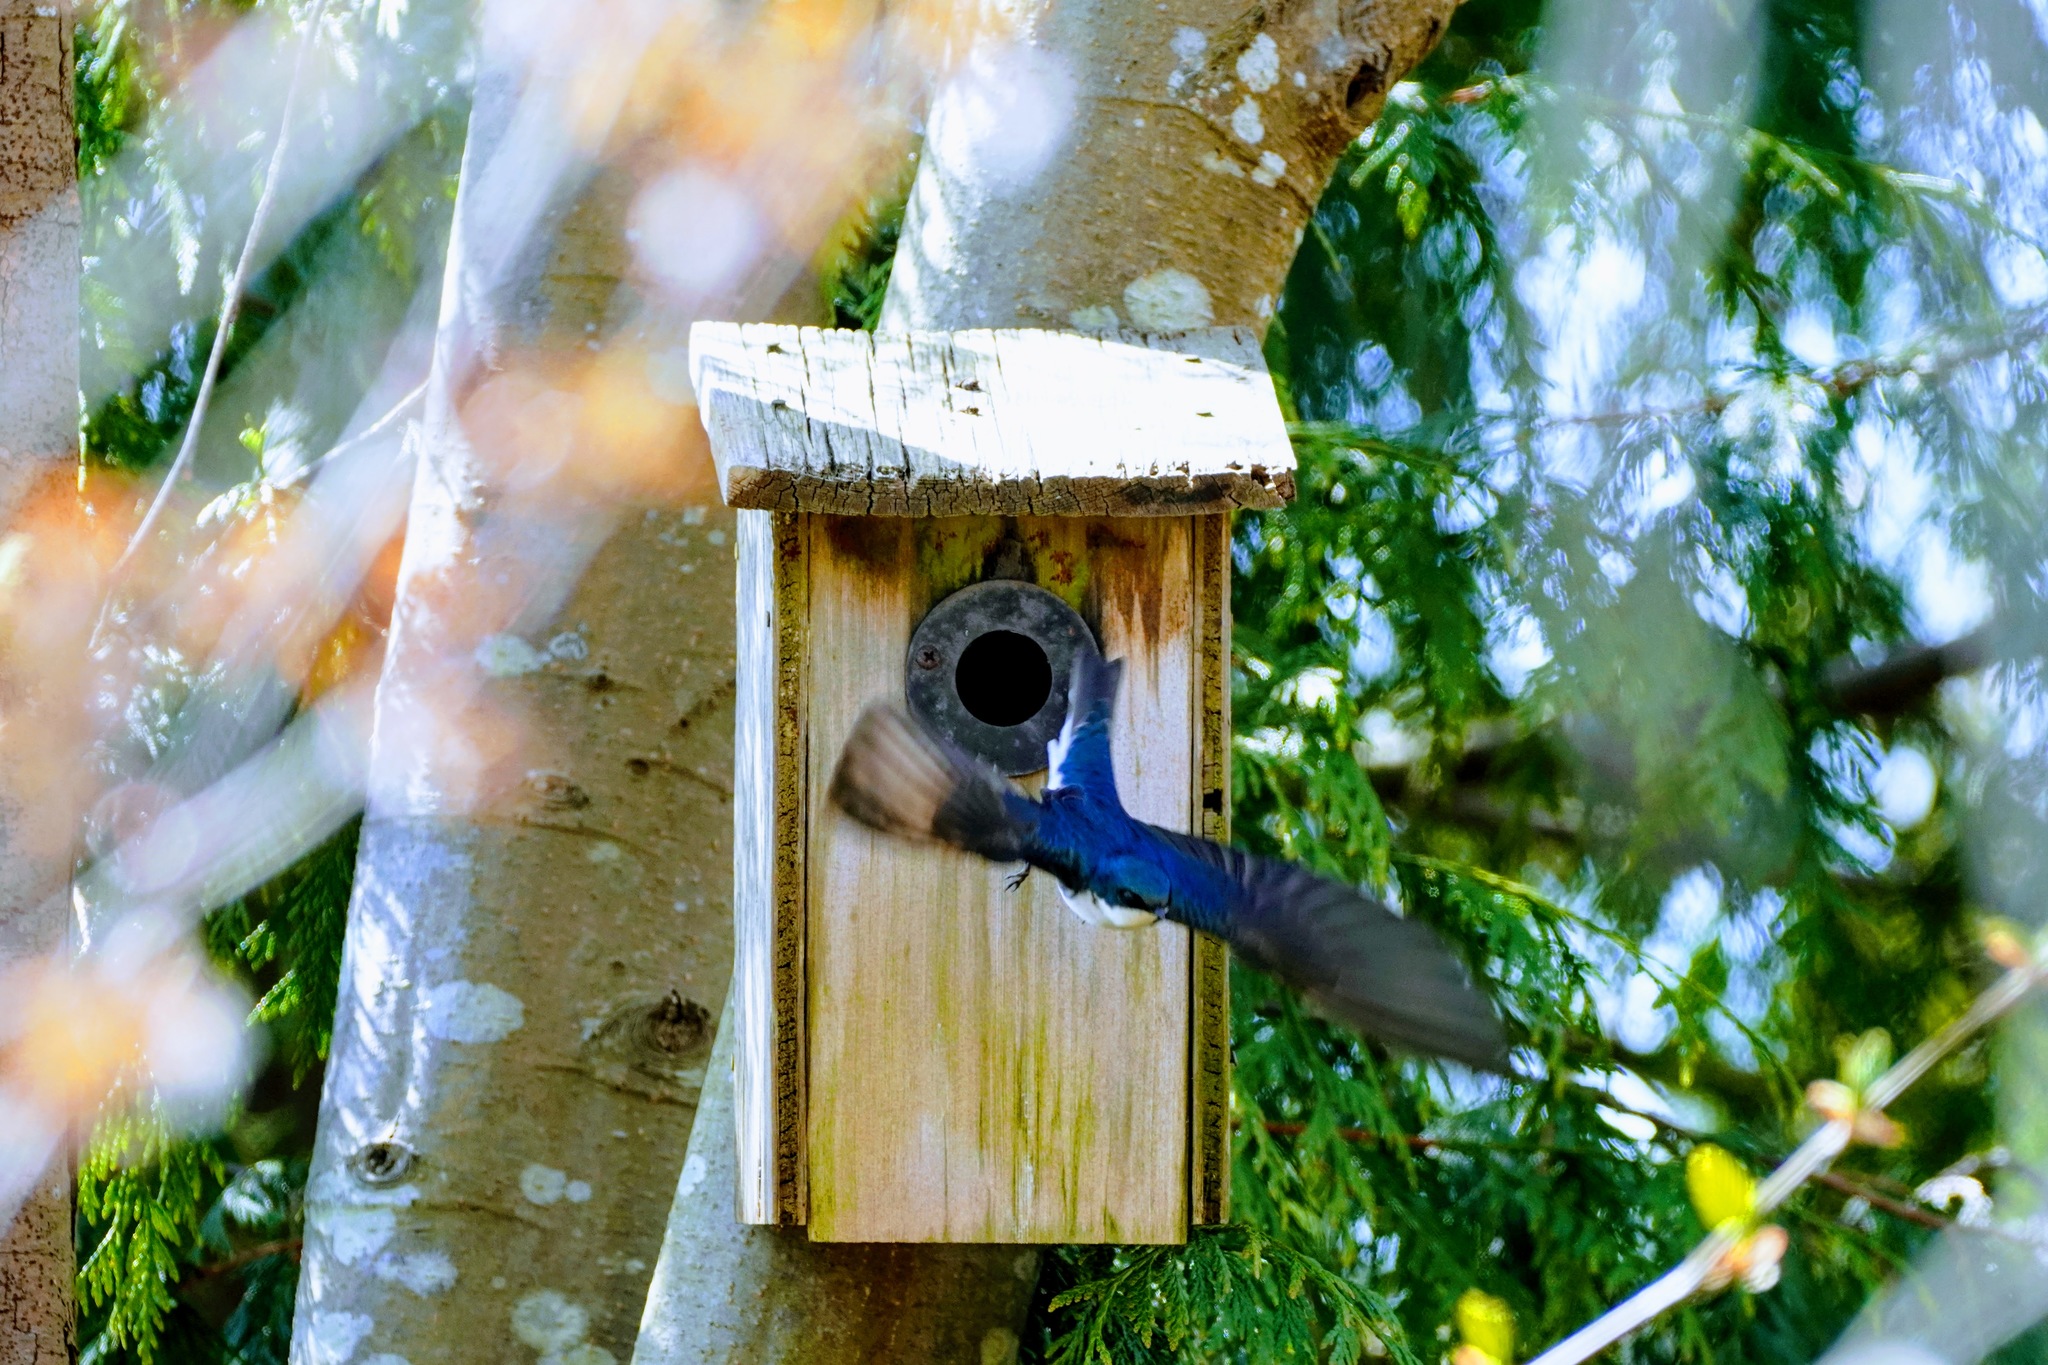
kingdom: Animalia
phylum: Chordata
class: Aves
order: Passeriformes
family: Hirundinidae
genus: Tachycineta
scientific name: Tachycineta bicolor
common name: Tree swallow
